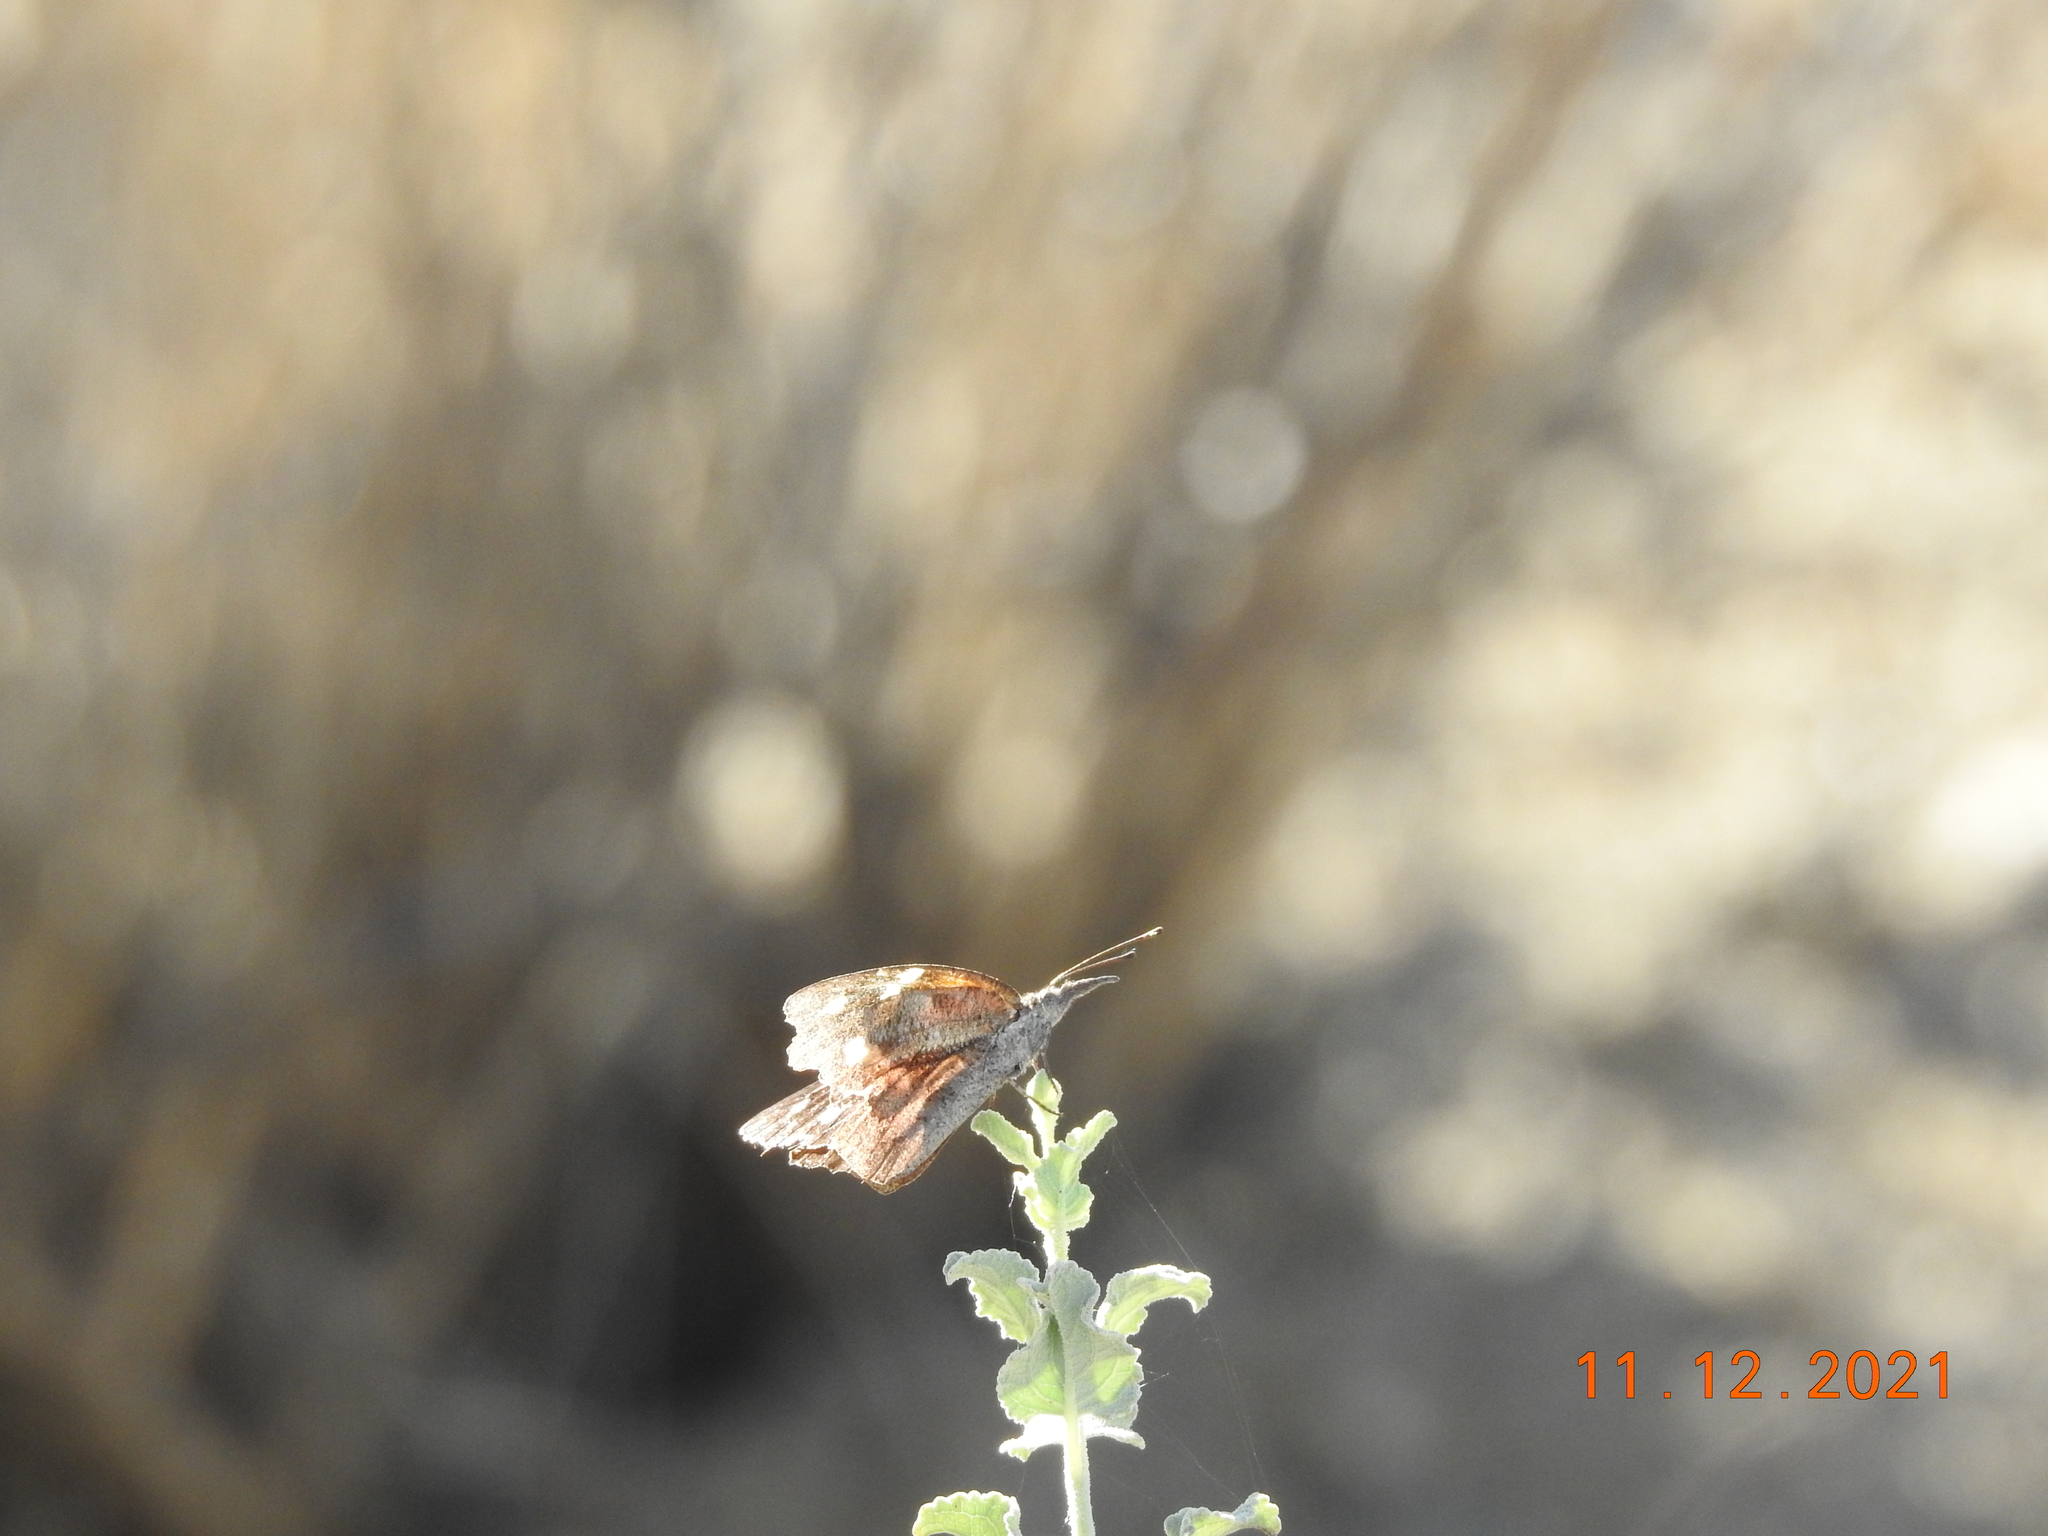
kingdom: Animalia
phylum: Arthropoda
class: Insecta
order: Lepidoptera
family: Nymphalidae
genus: Libytheana
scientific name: Libytheana carinenta
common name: American snout
